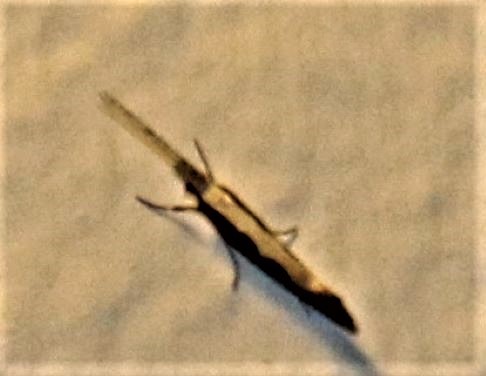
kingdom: Animalia
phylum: Arthropoda
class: Insecta
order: Lepidoptera
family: Plutellidae
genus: Plutella
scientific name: Plutella xylostella
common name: Diamond-back moth
